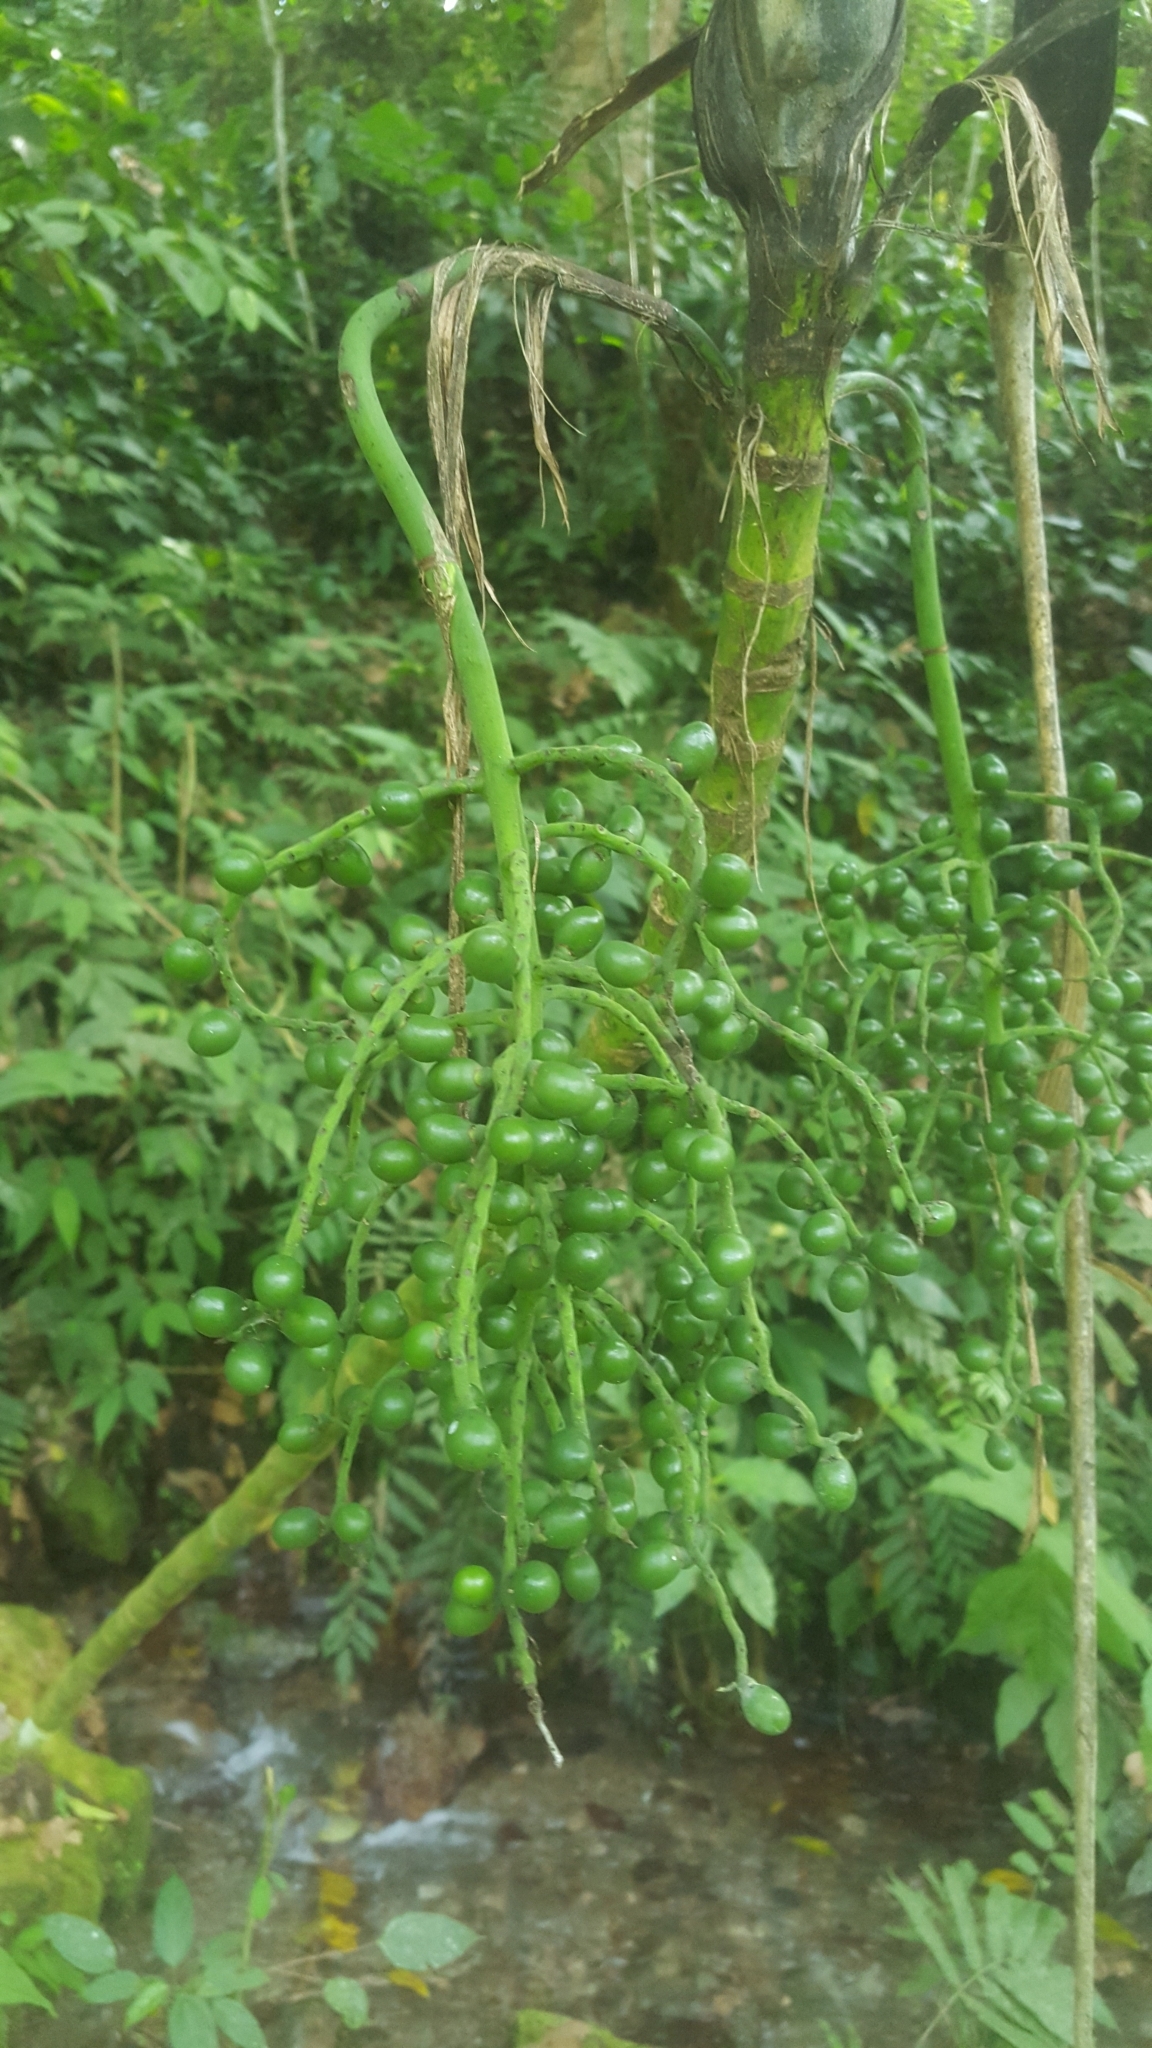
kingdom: Plantae
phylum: Tracheophyta
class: Liliopsida
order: Arecales
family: Arecaceae
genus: Chamaedorea
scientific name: Chamaedorea linearis
